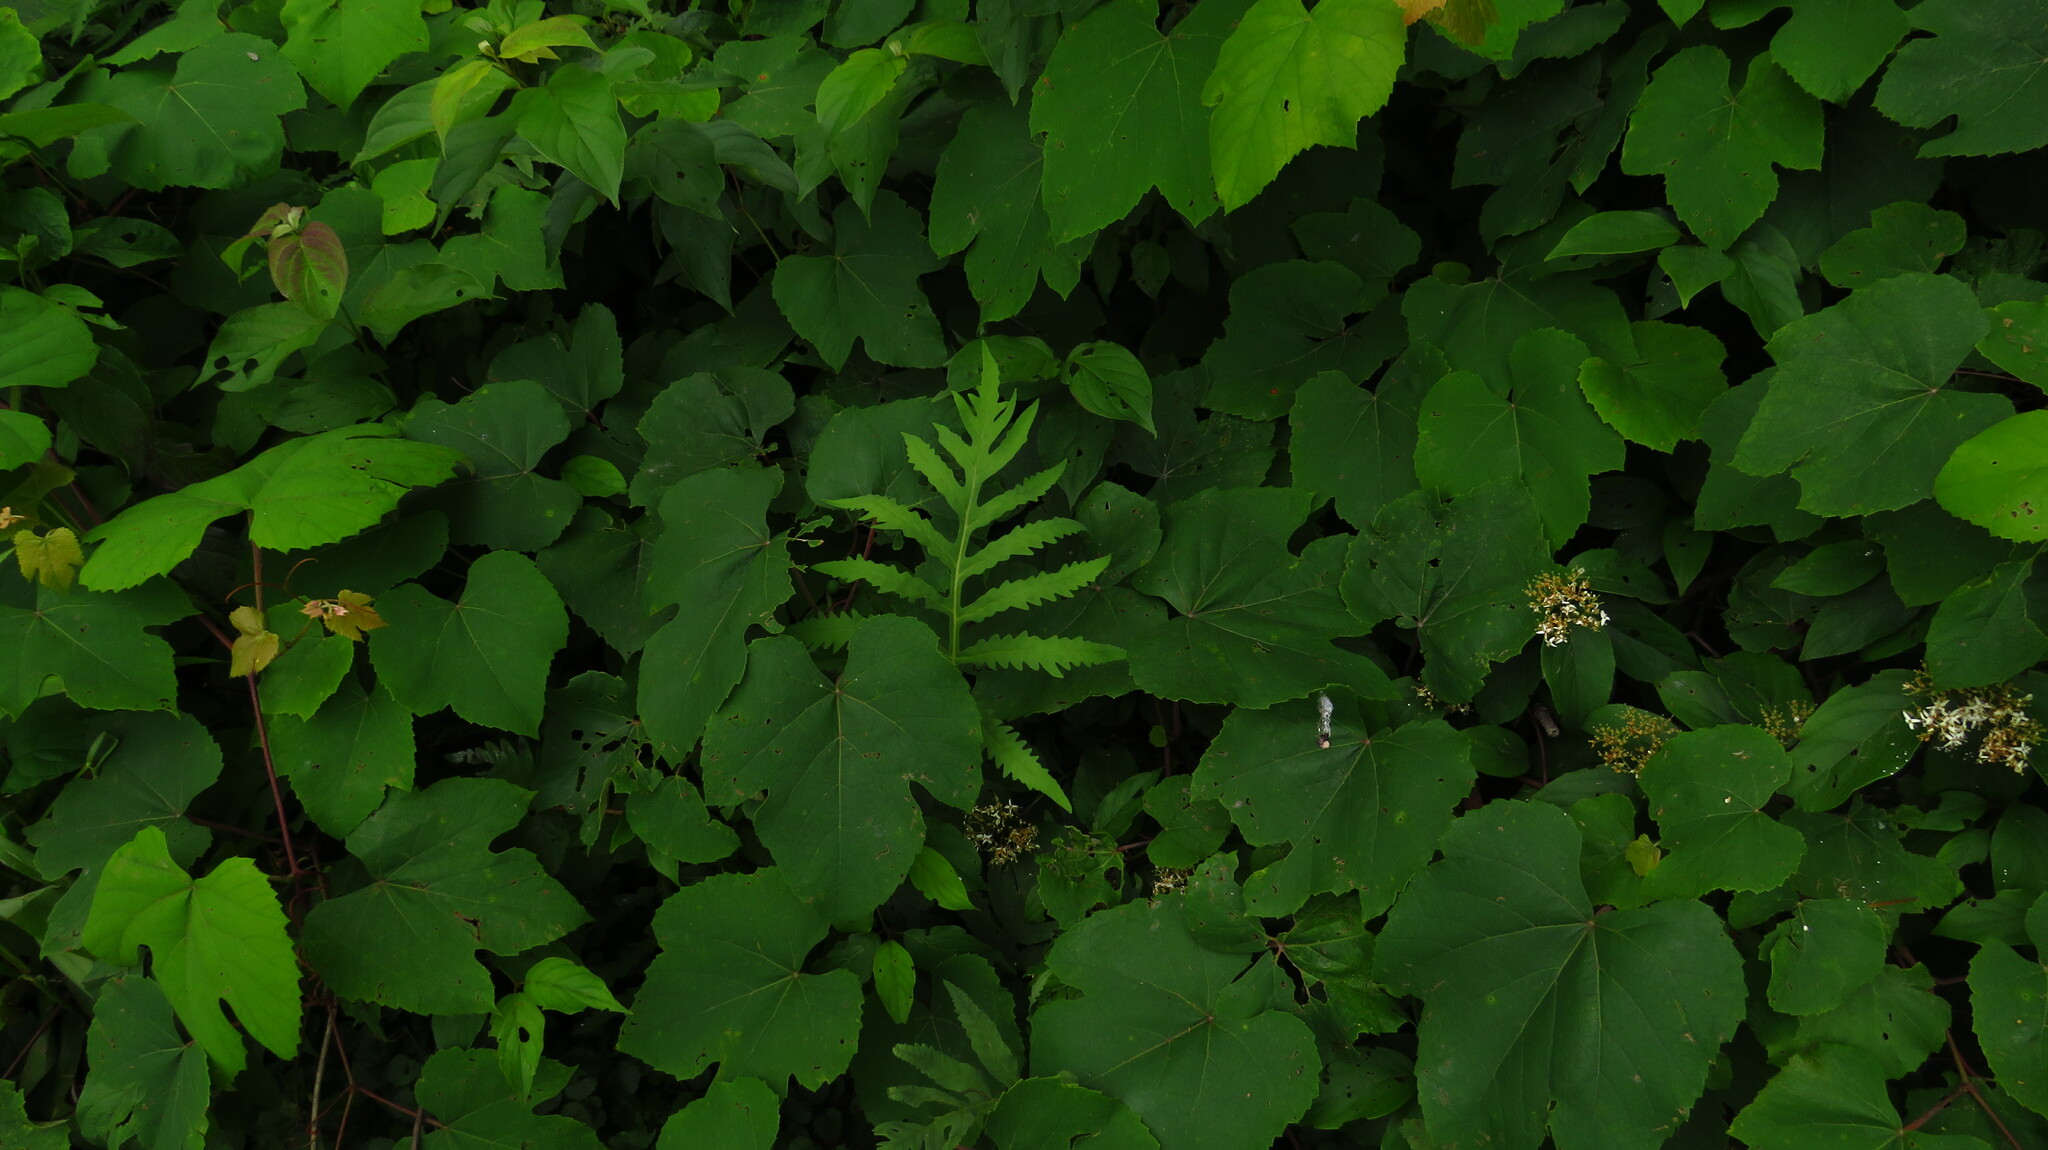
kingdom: Plantae
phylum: Tracheophyta
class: Polypodiopsida
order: Polypodiales
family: Onocleaceae
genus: Onoclea
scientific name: Onoclea sensibilis
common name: Sensitive fern
